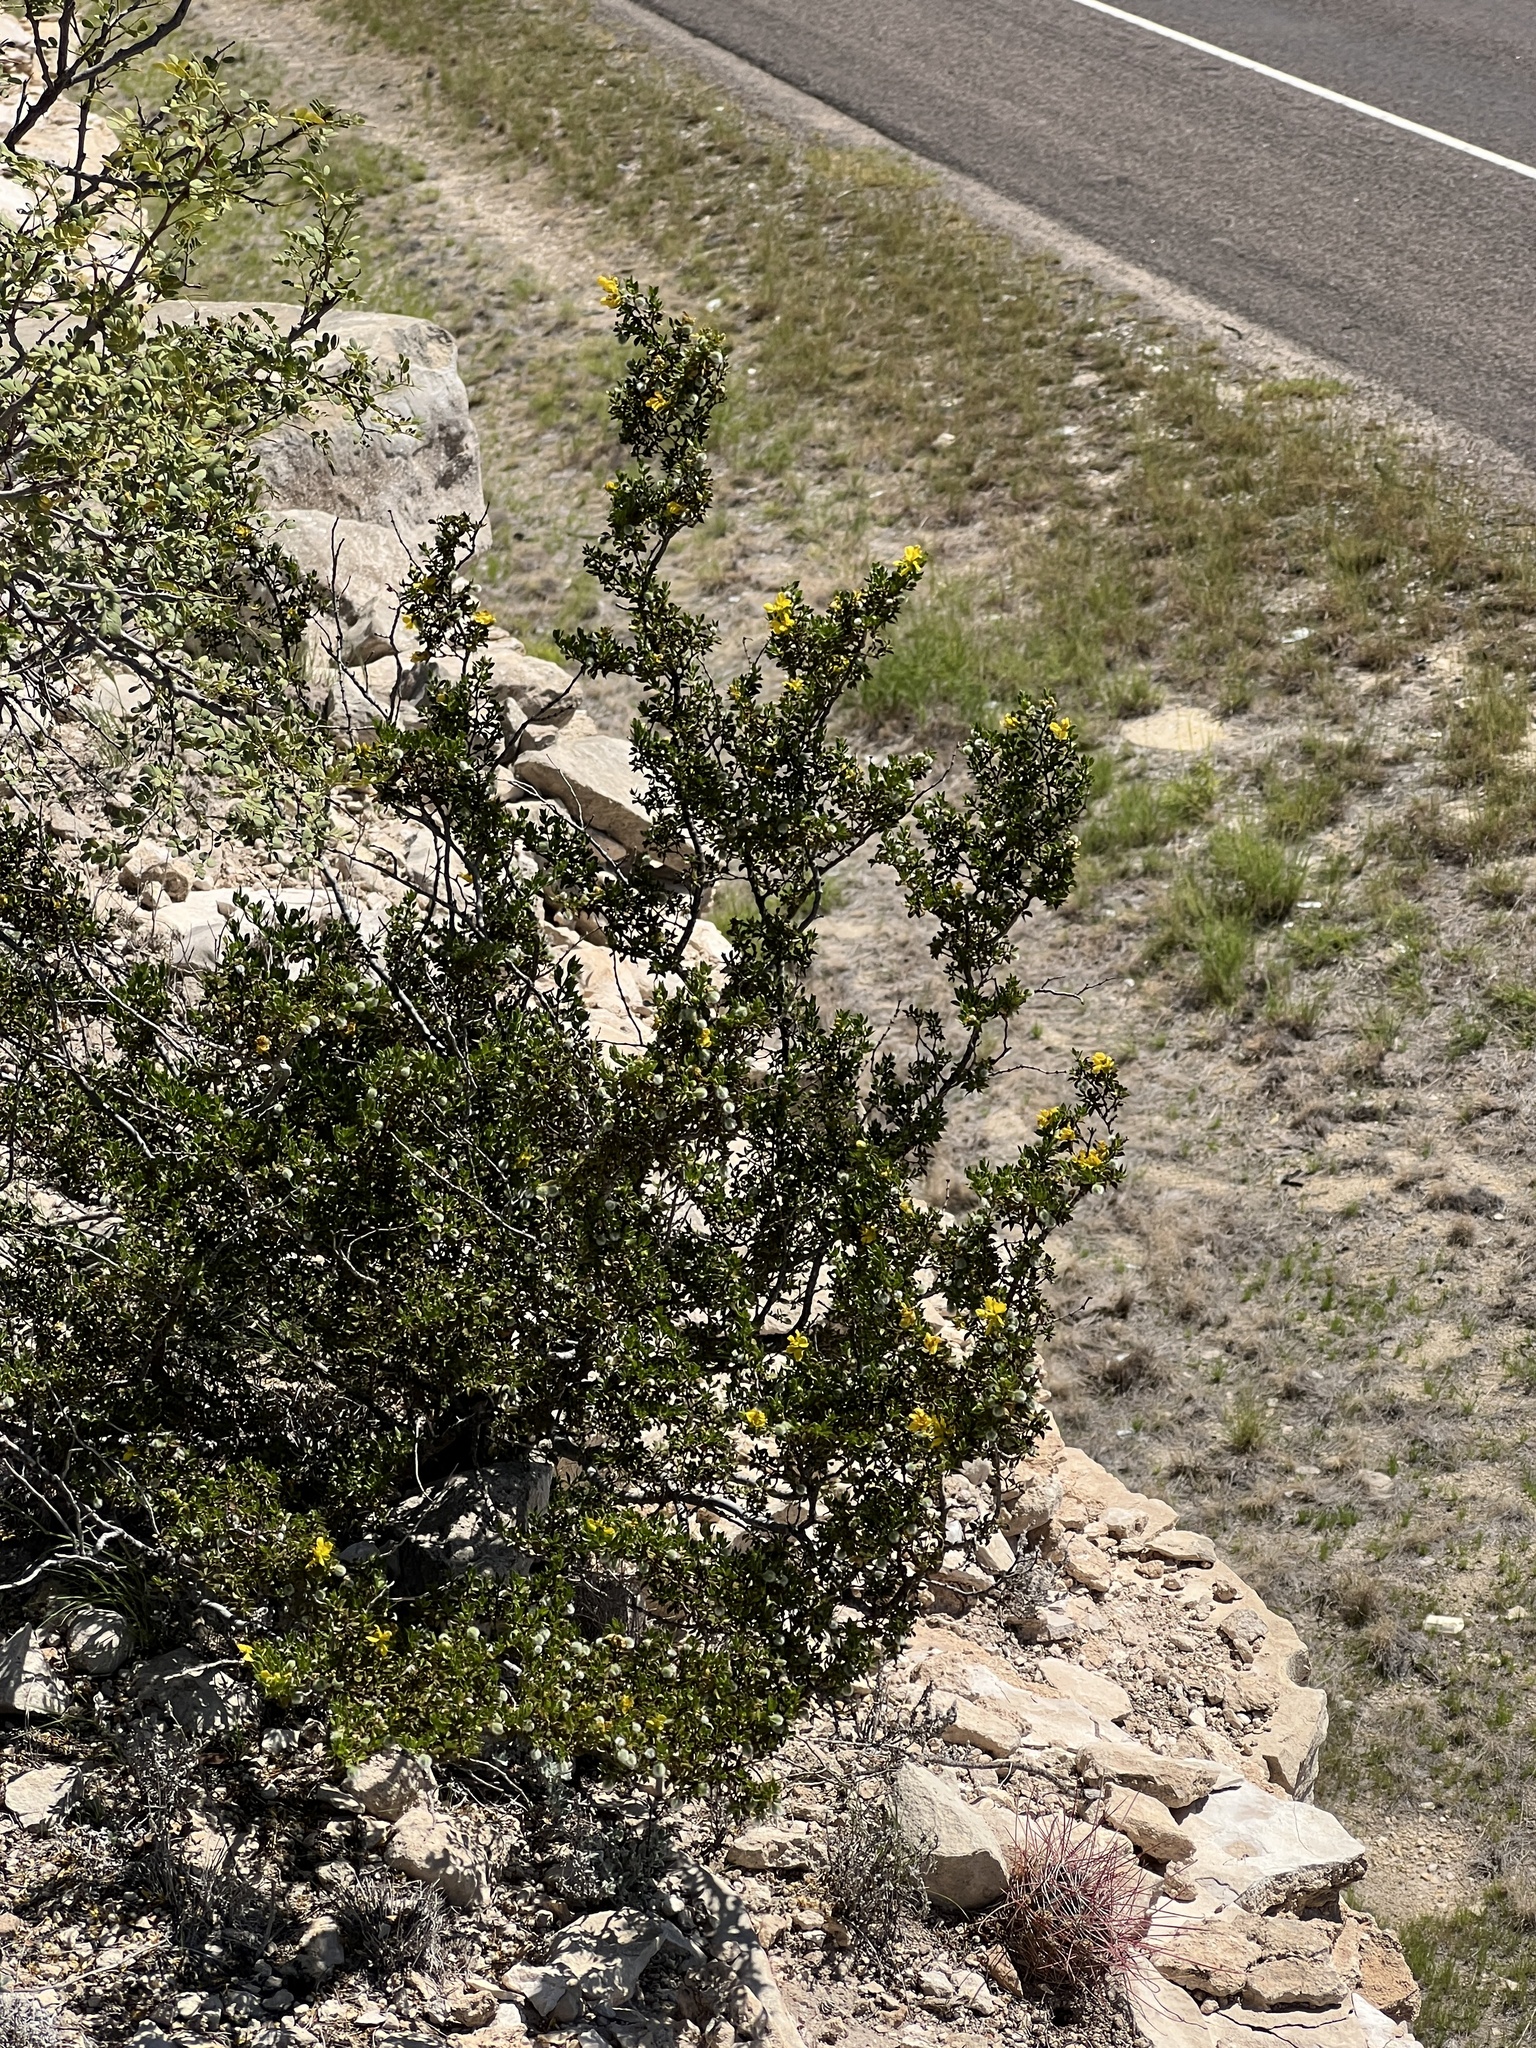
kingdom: Plantae
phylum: Tracheophyta
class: Magnoliopsida
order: Zygophyllales
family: Zygophyllaceae
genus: Larrea
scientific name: Larrea tridentata
